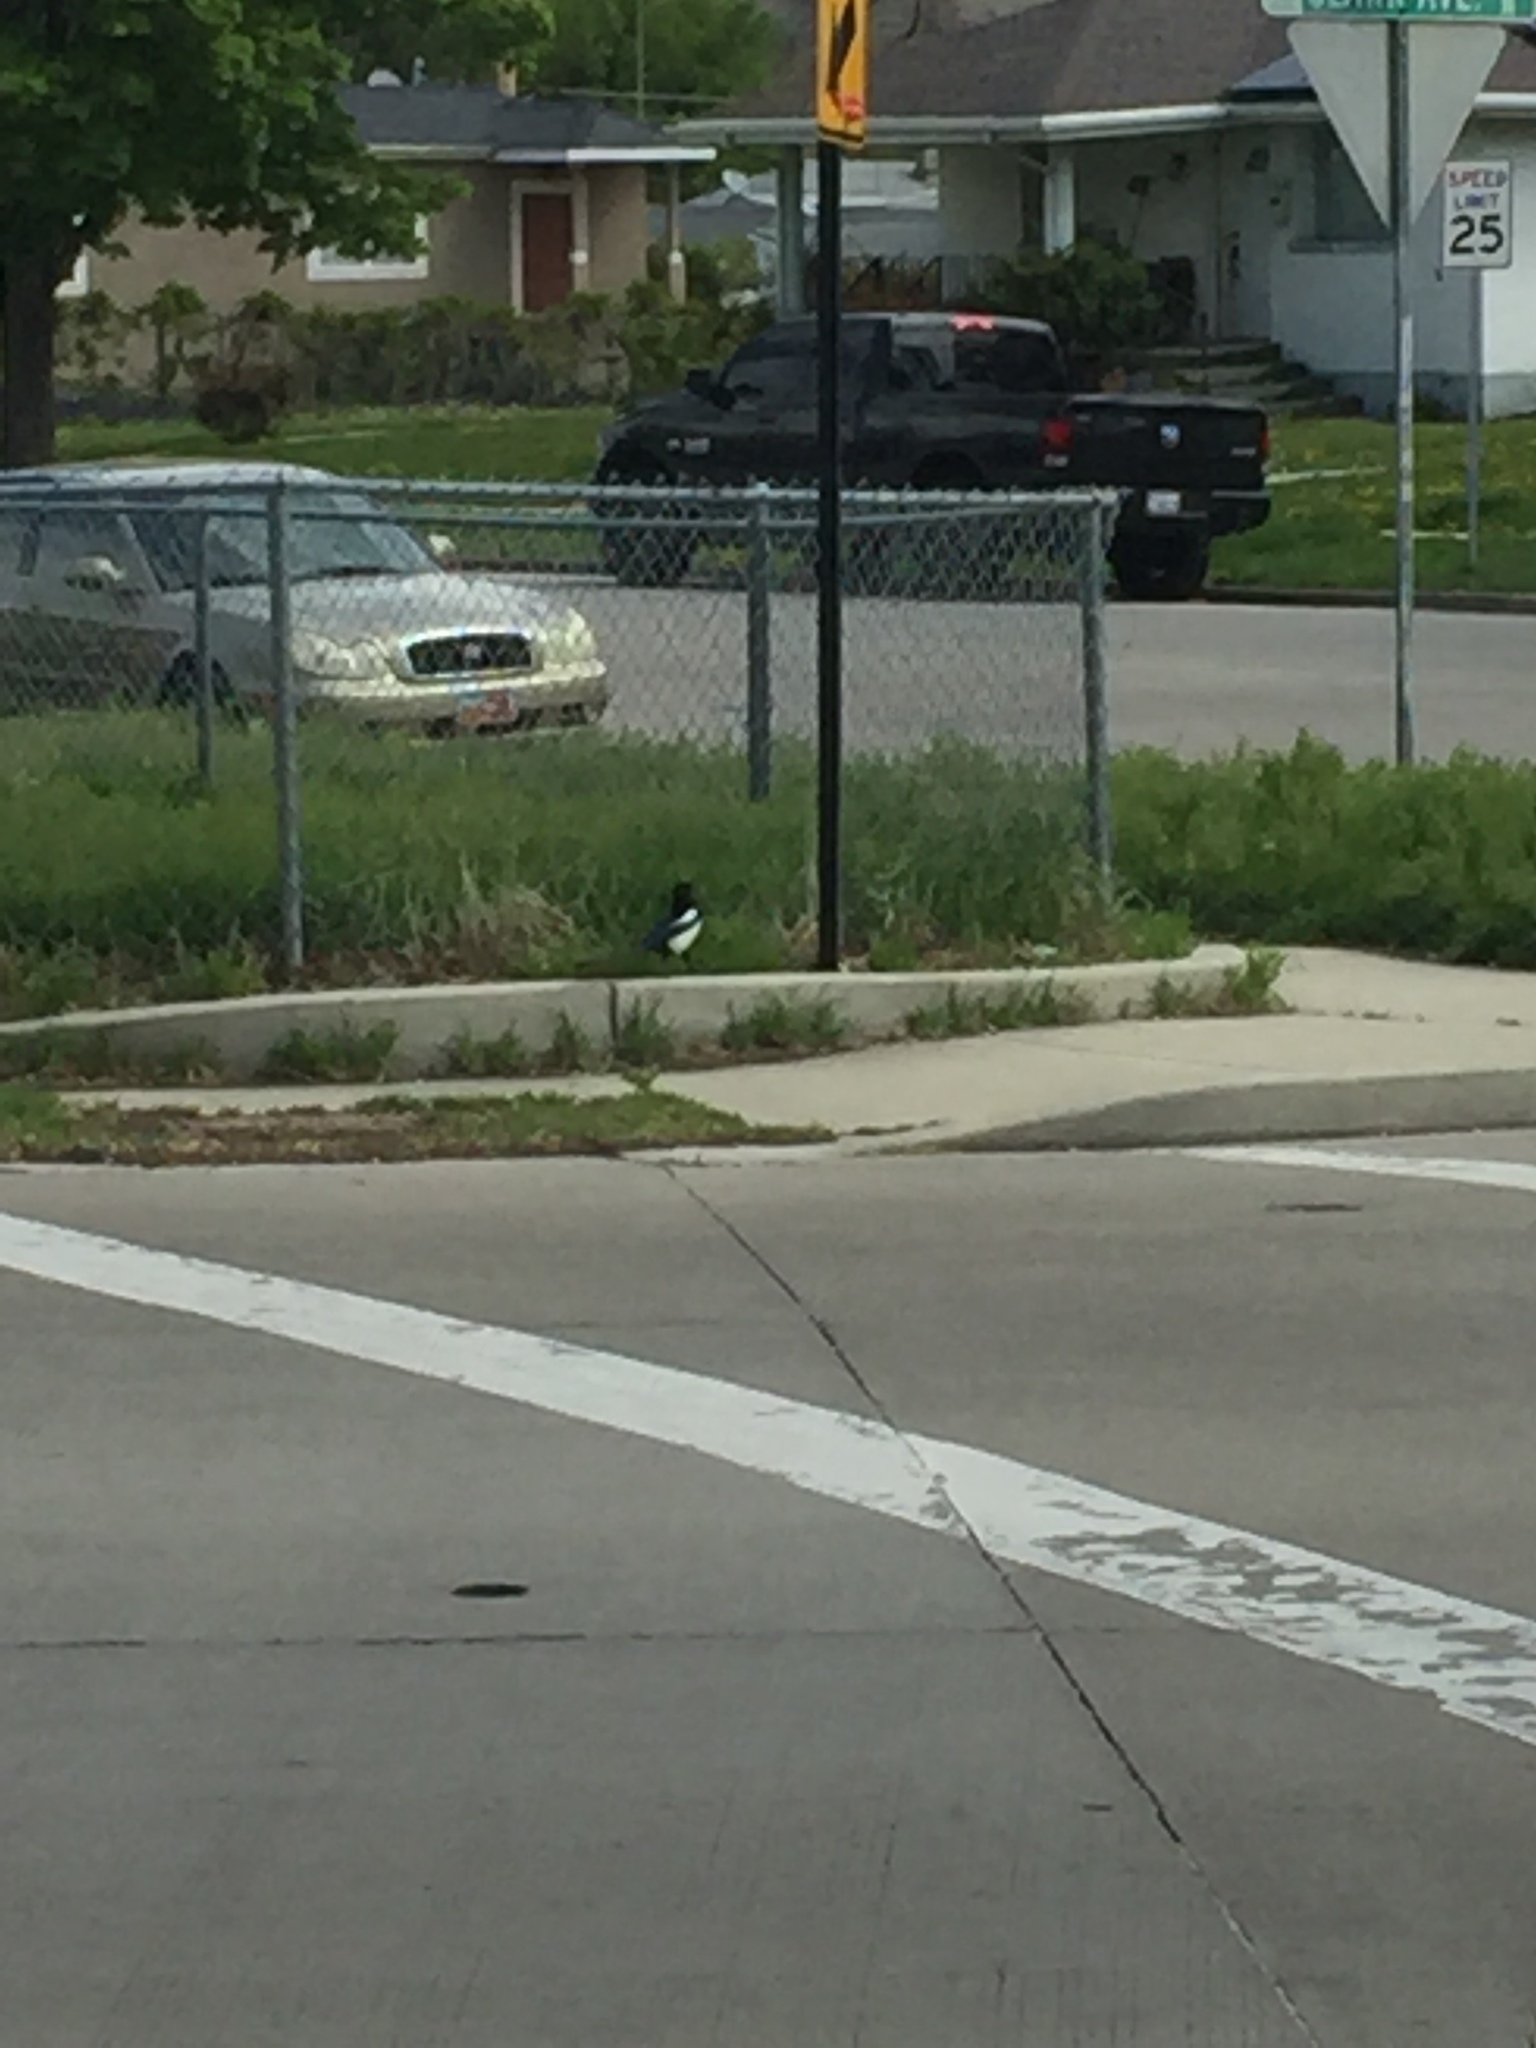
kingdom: Animalia
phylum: Chordata
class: Aves
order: Passeriformes
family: Corvidae
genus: Pica
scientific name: Pica hudsonia
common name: Black-billed magpie
